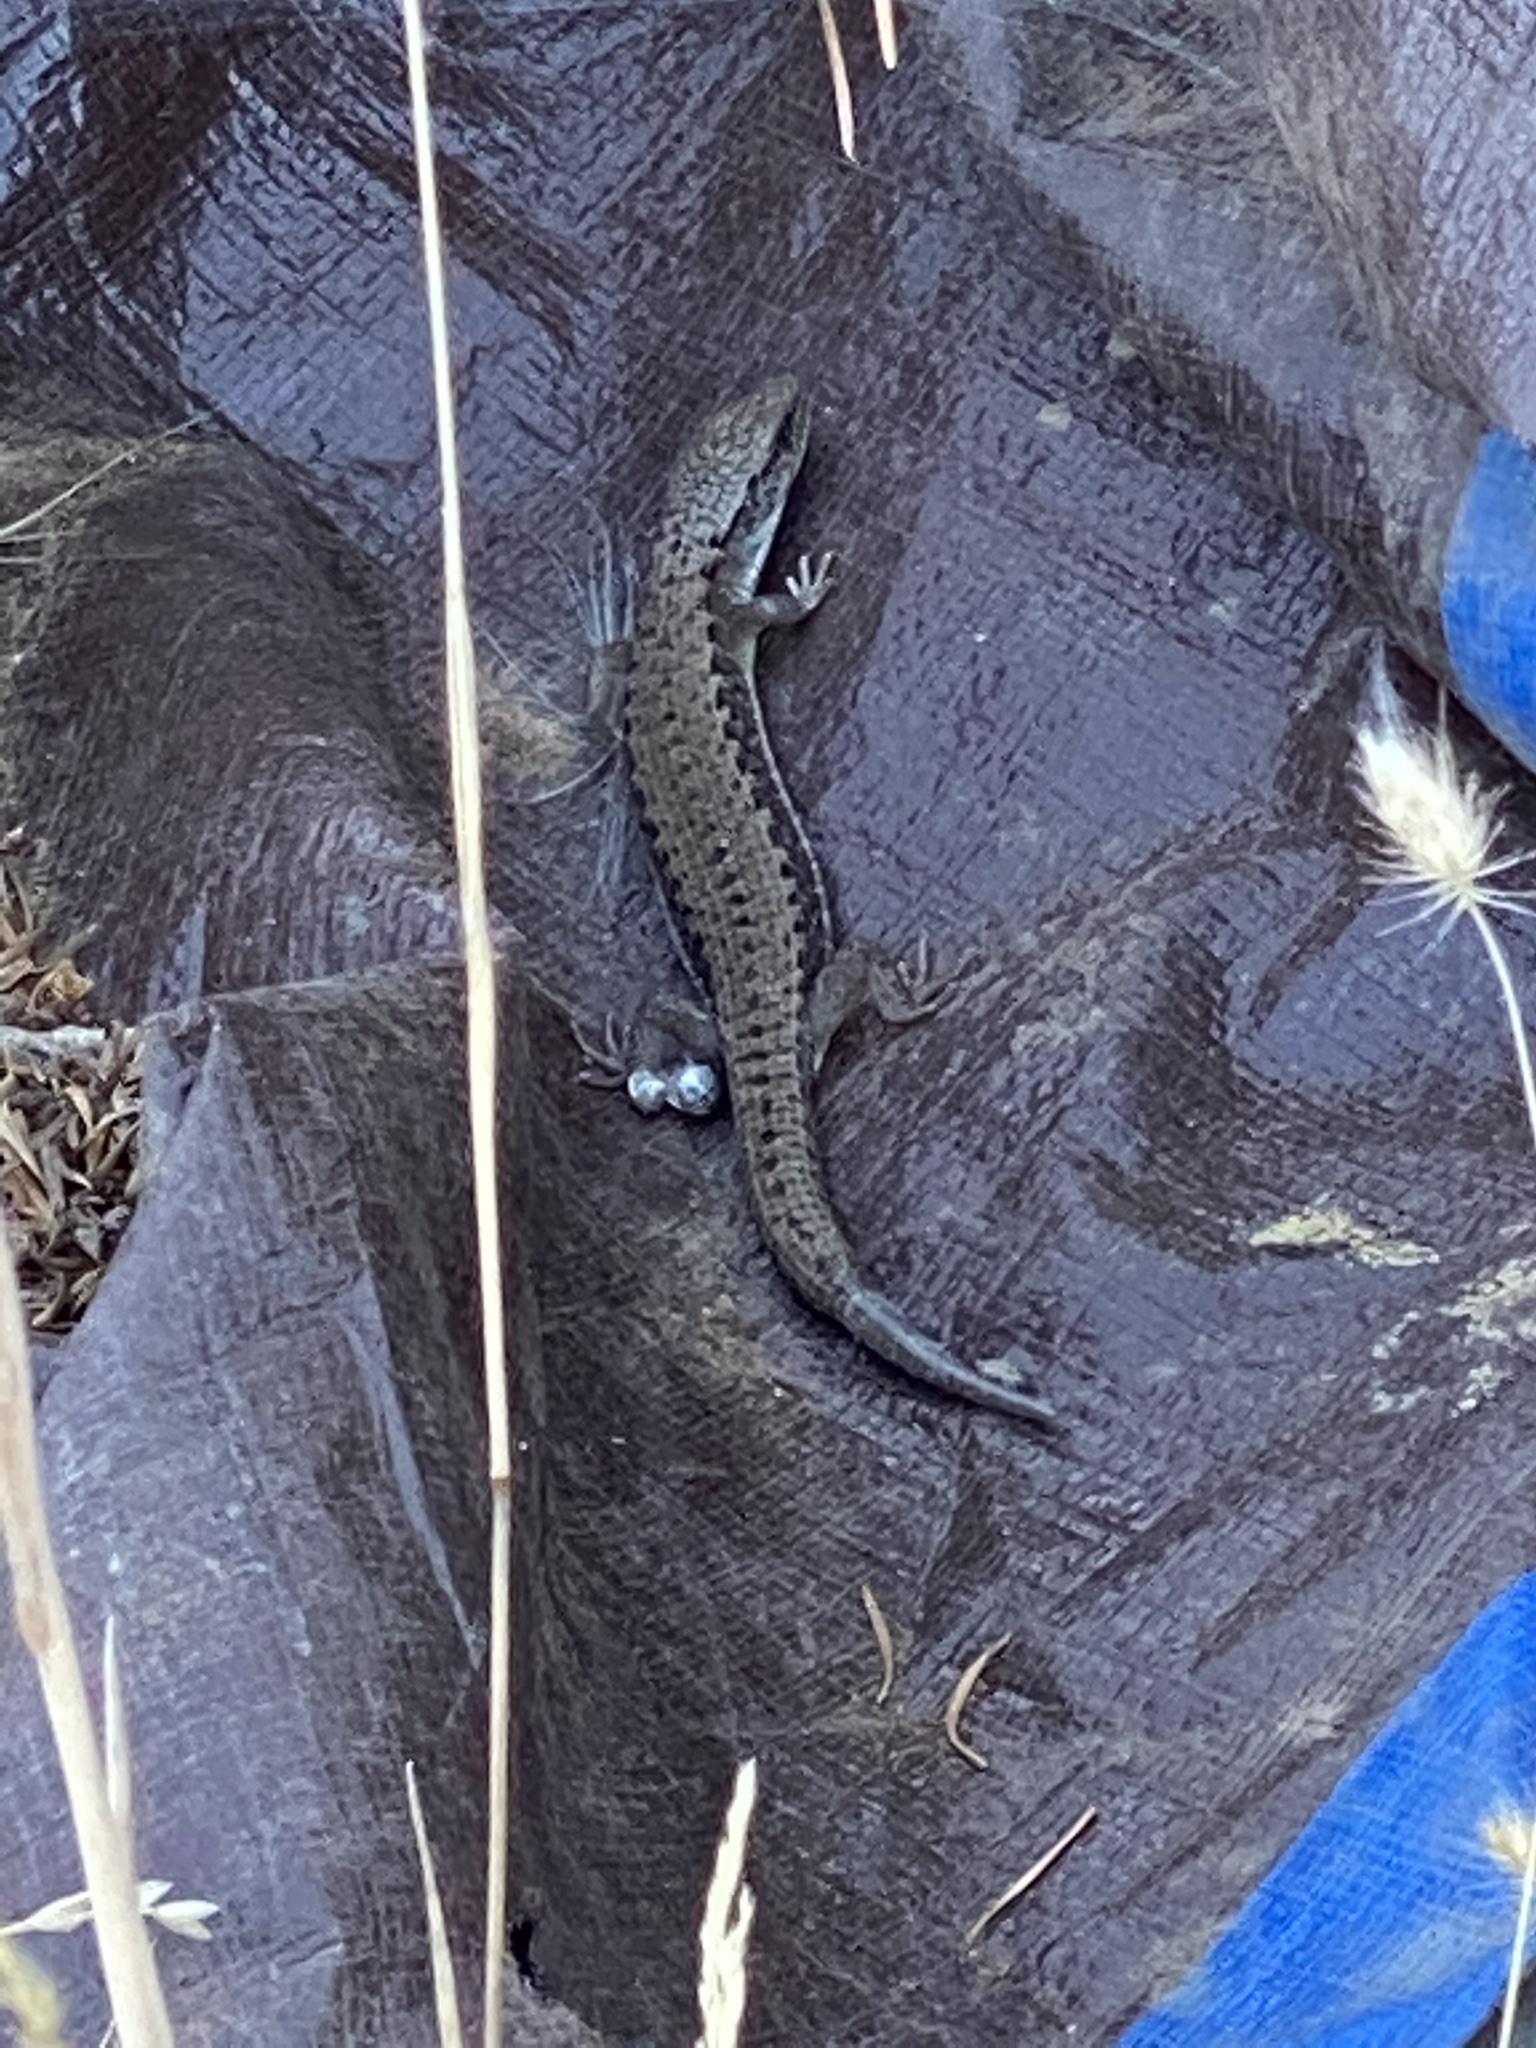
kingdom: Animalia
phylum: Chordata
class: Squamata
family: Anguidae
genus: Elgaria
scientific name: Elgaria coerulea
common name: Northern alligator lizard
